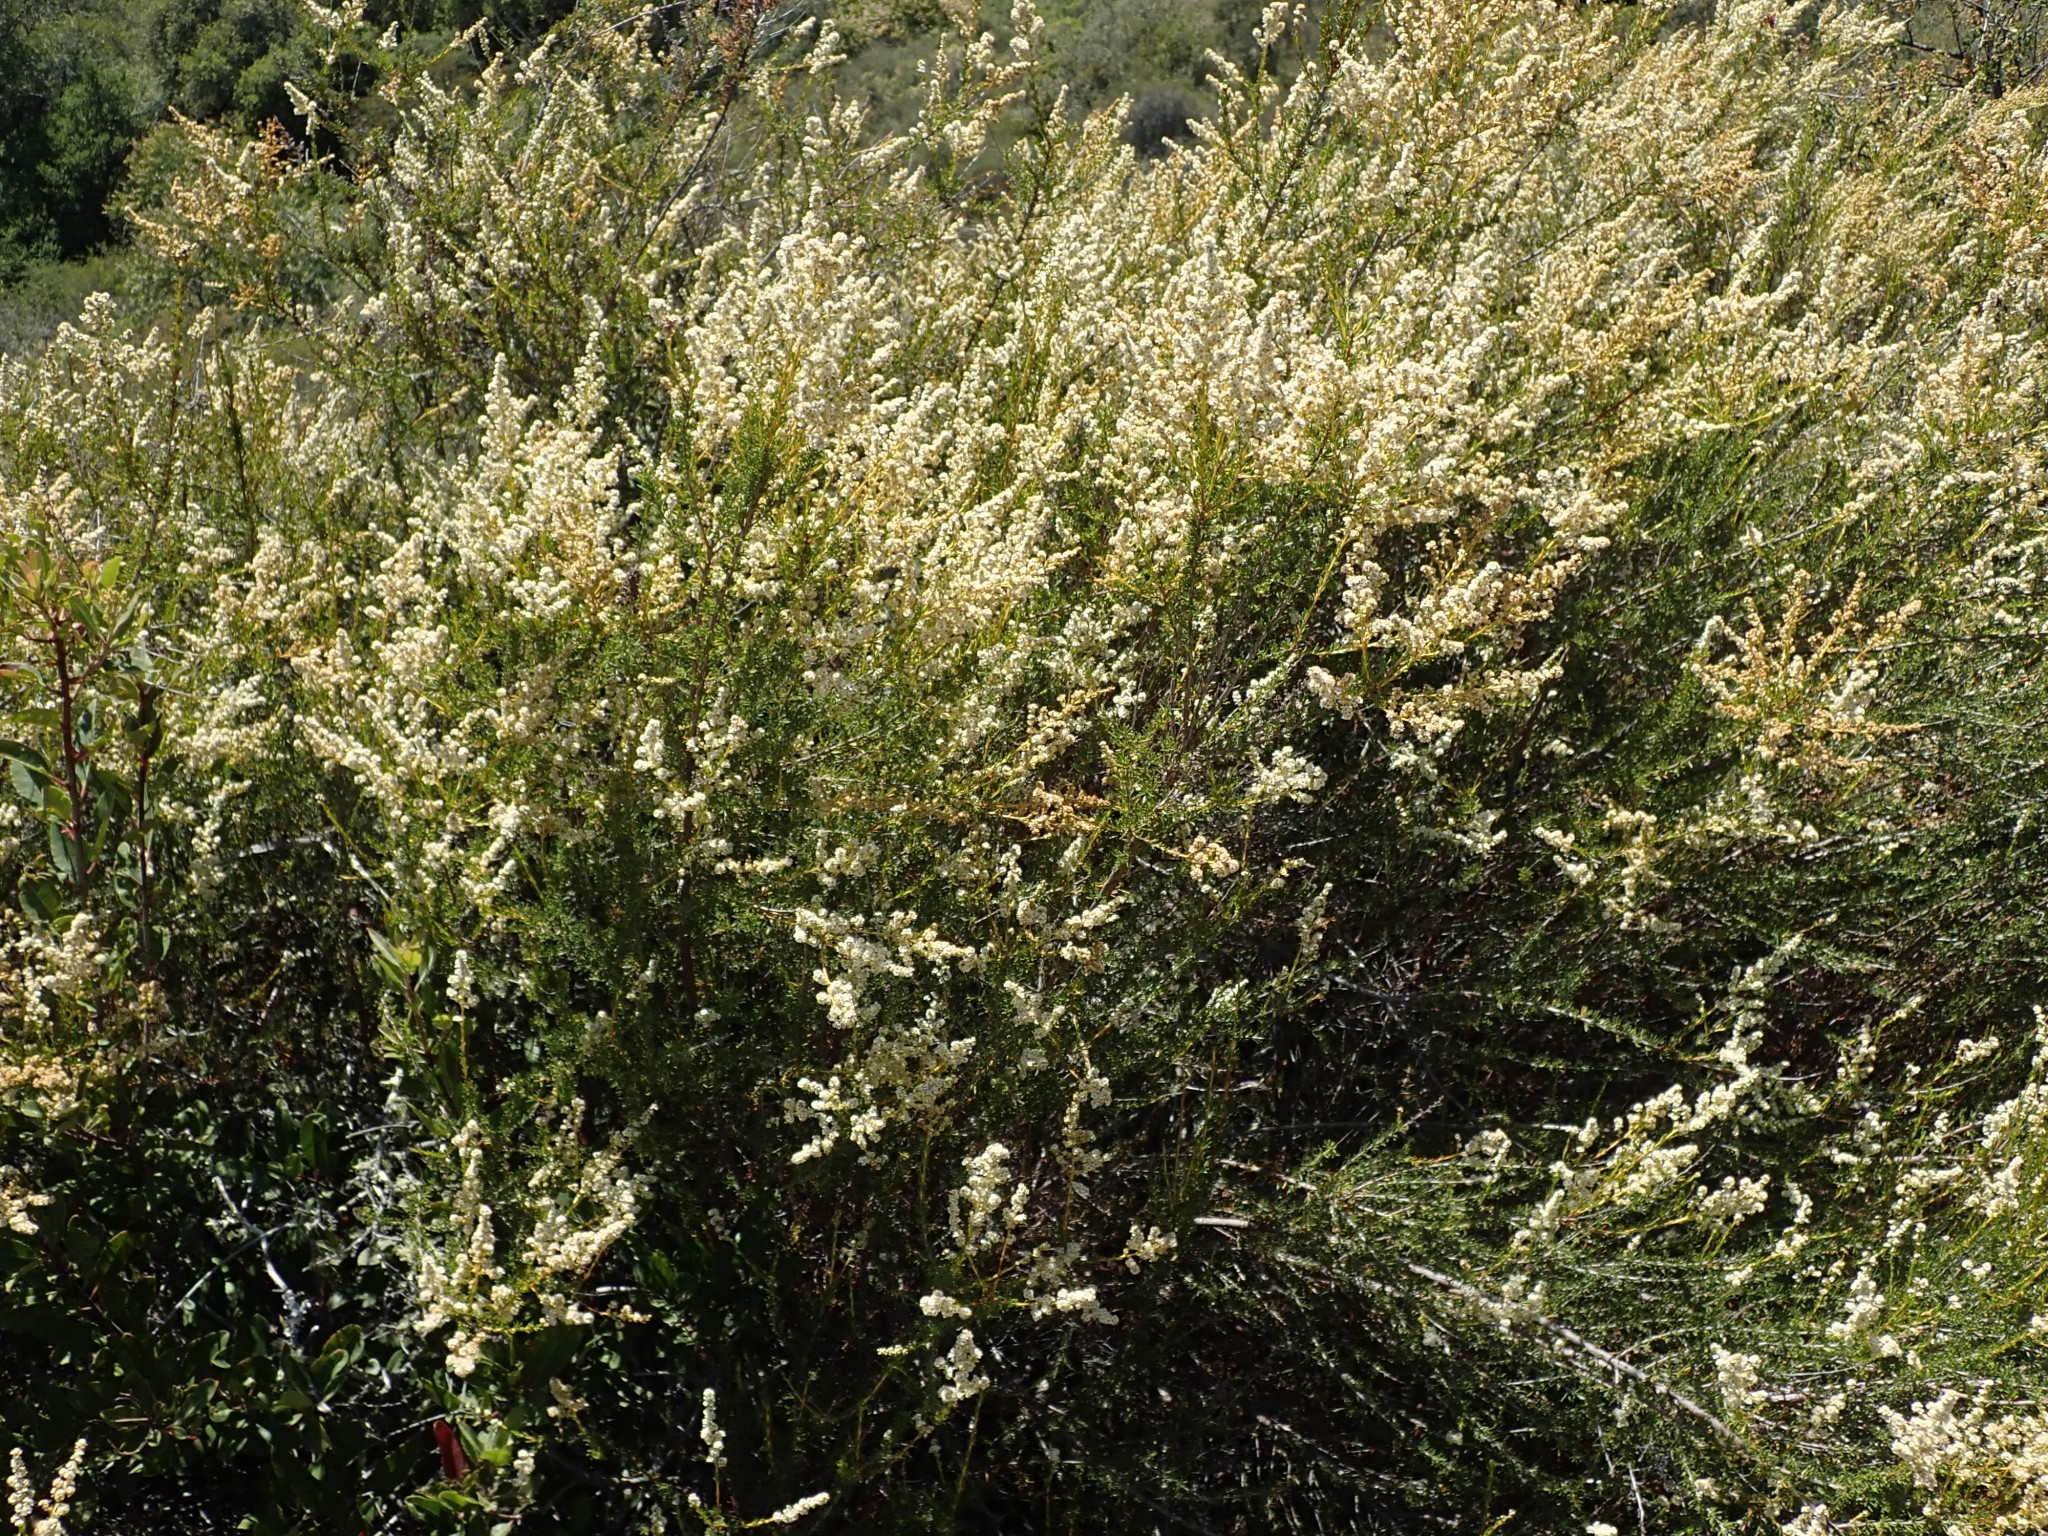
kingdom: Plantae
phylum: Tracheophyta
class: Magnoliopsida
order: Rosales
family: Rosaceae
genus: Adenostoma
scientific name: Adenostoma fasciculatum
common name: Chamise
